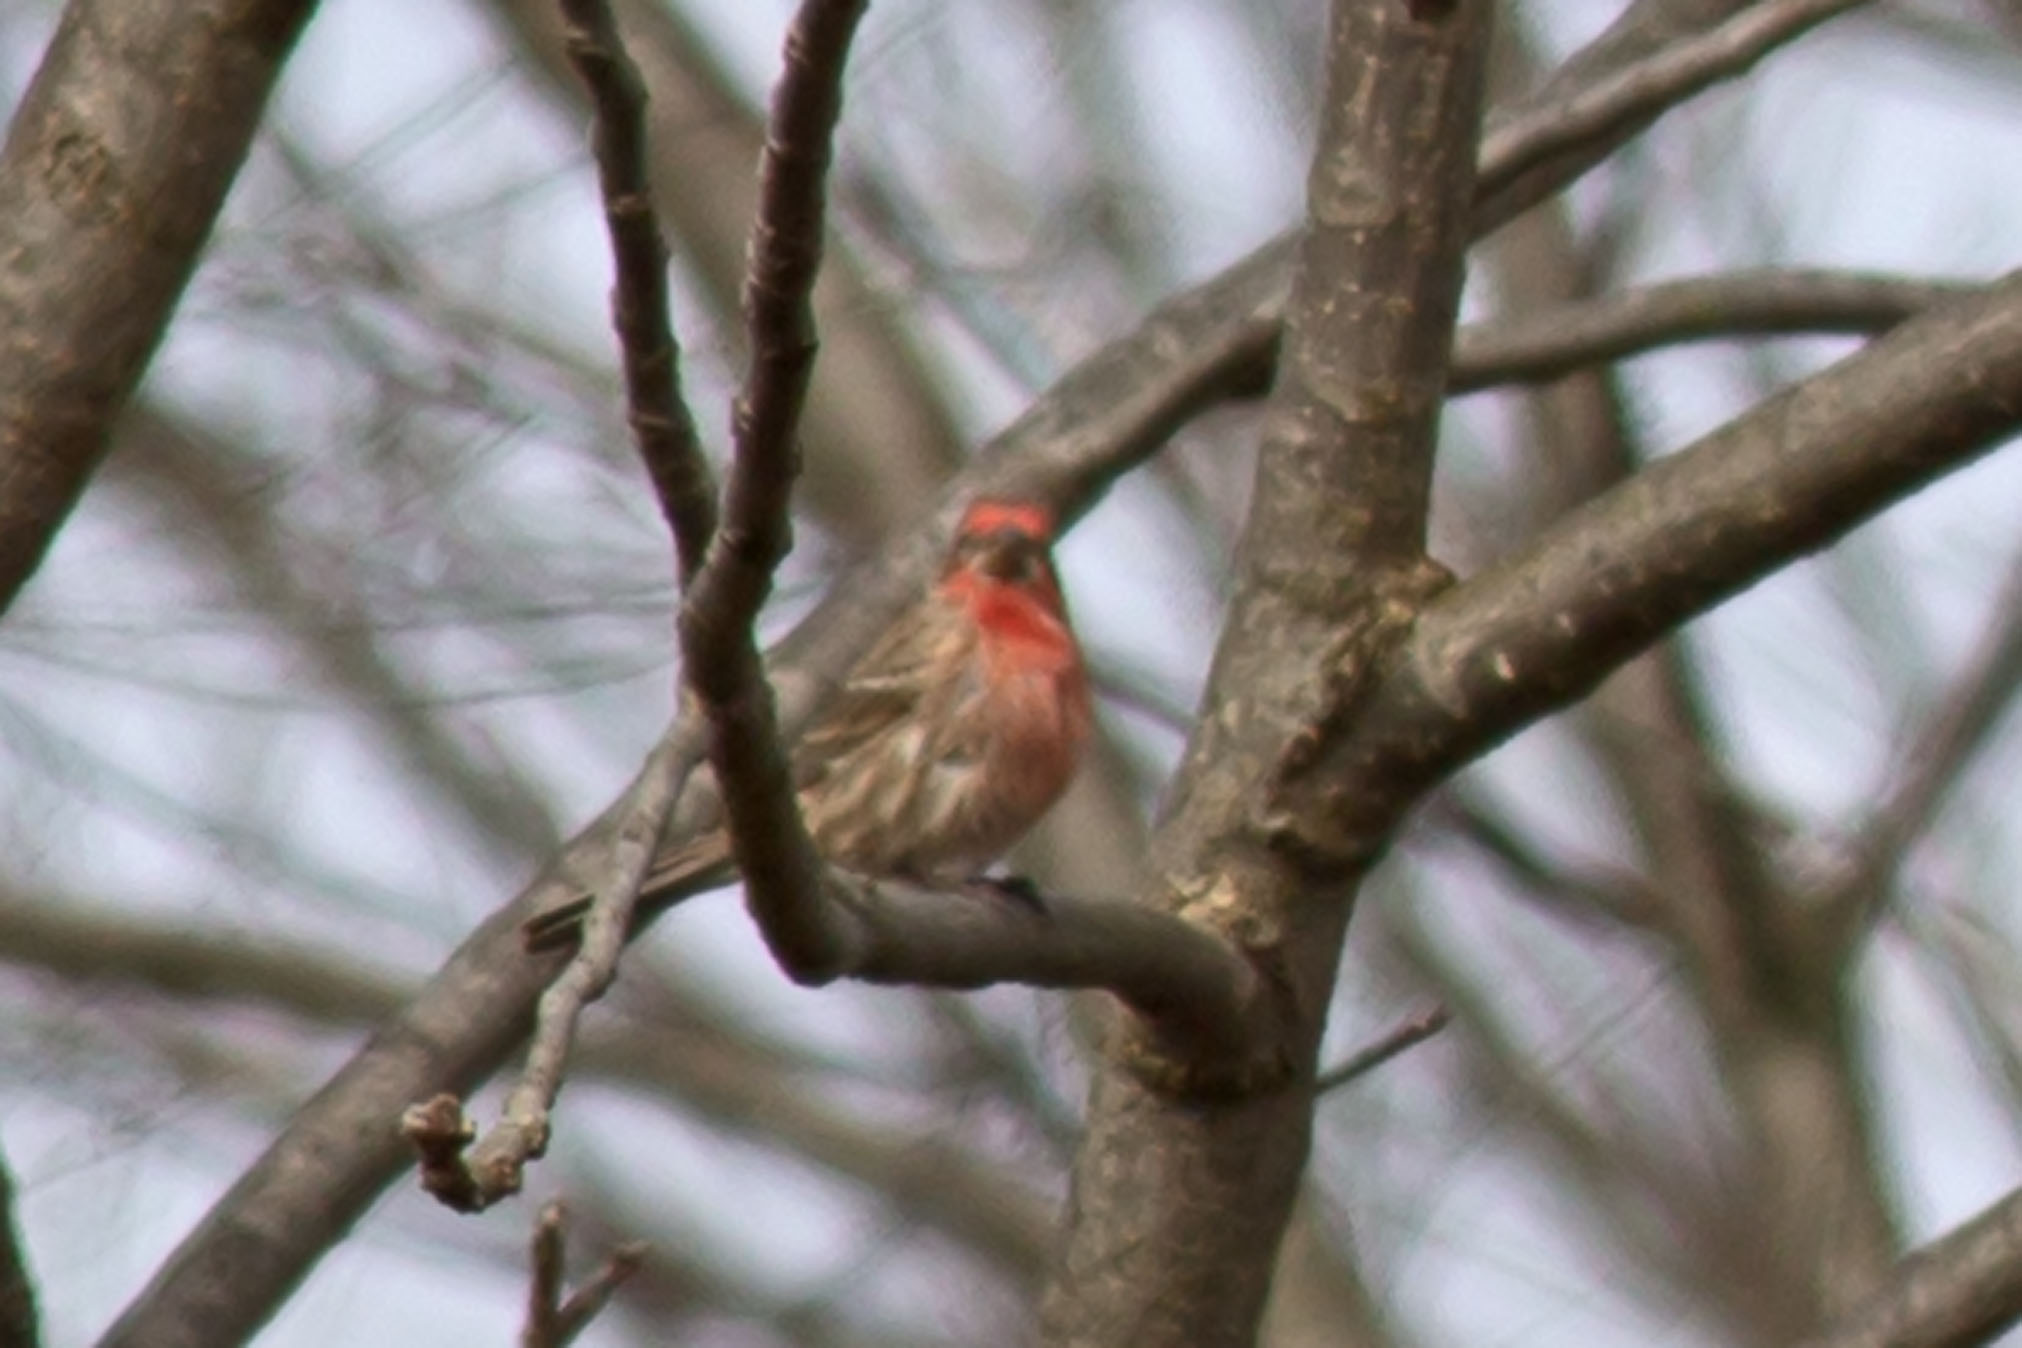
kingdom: Animalia
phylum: Chordata
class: Aves
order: Passeriformes
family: Fringillidae
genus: Haemorhous
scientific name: Haemorhous mexicanus
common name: House finch
